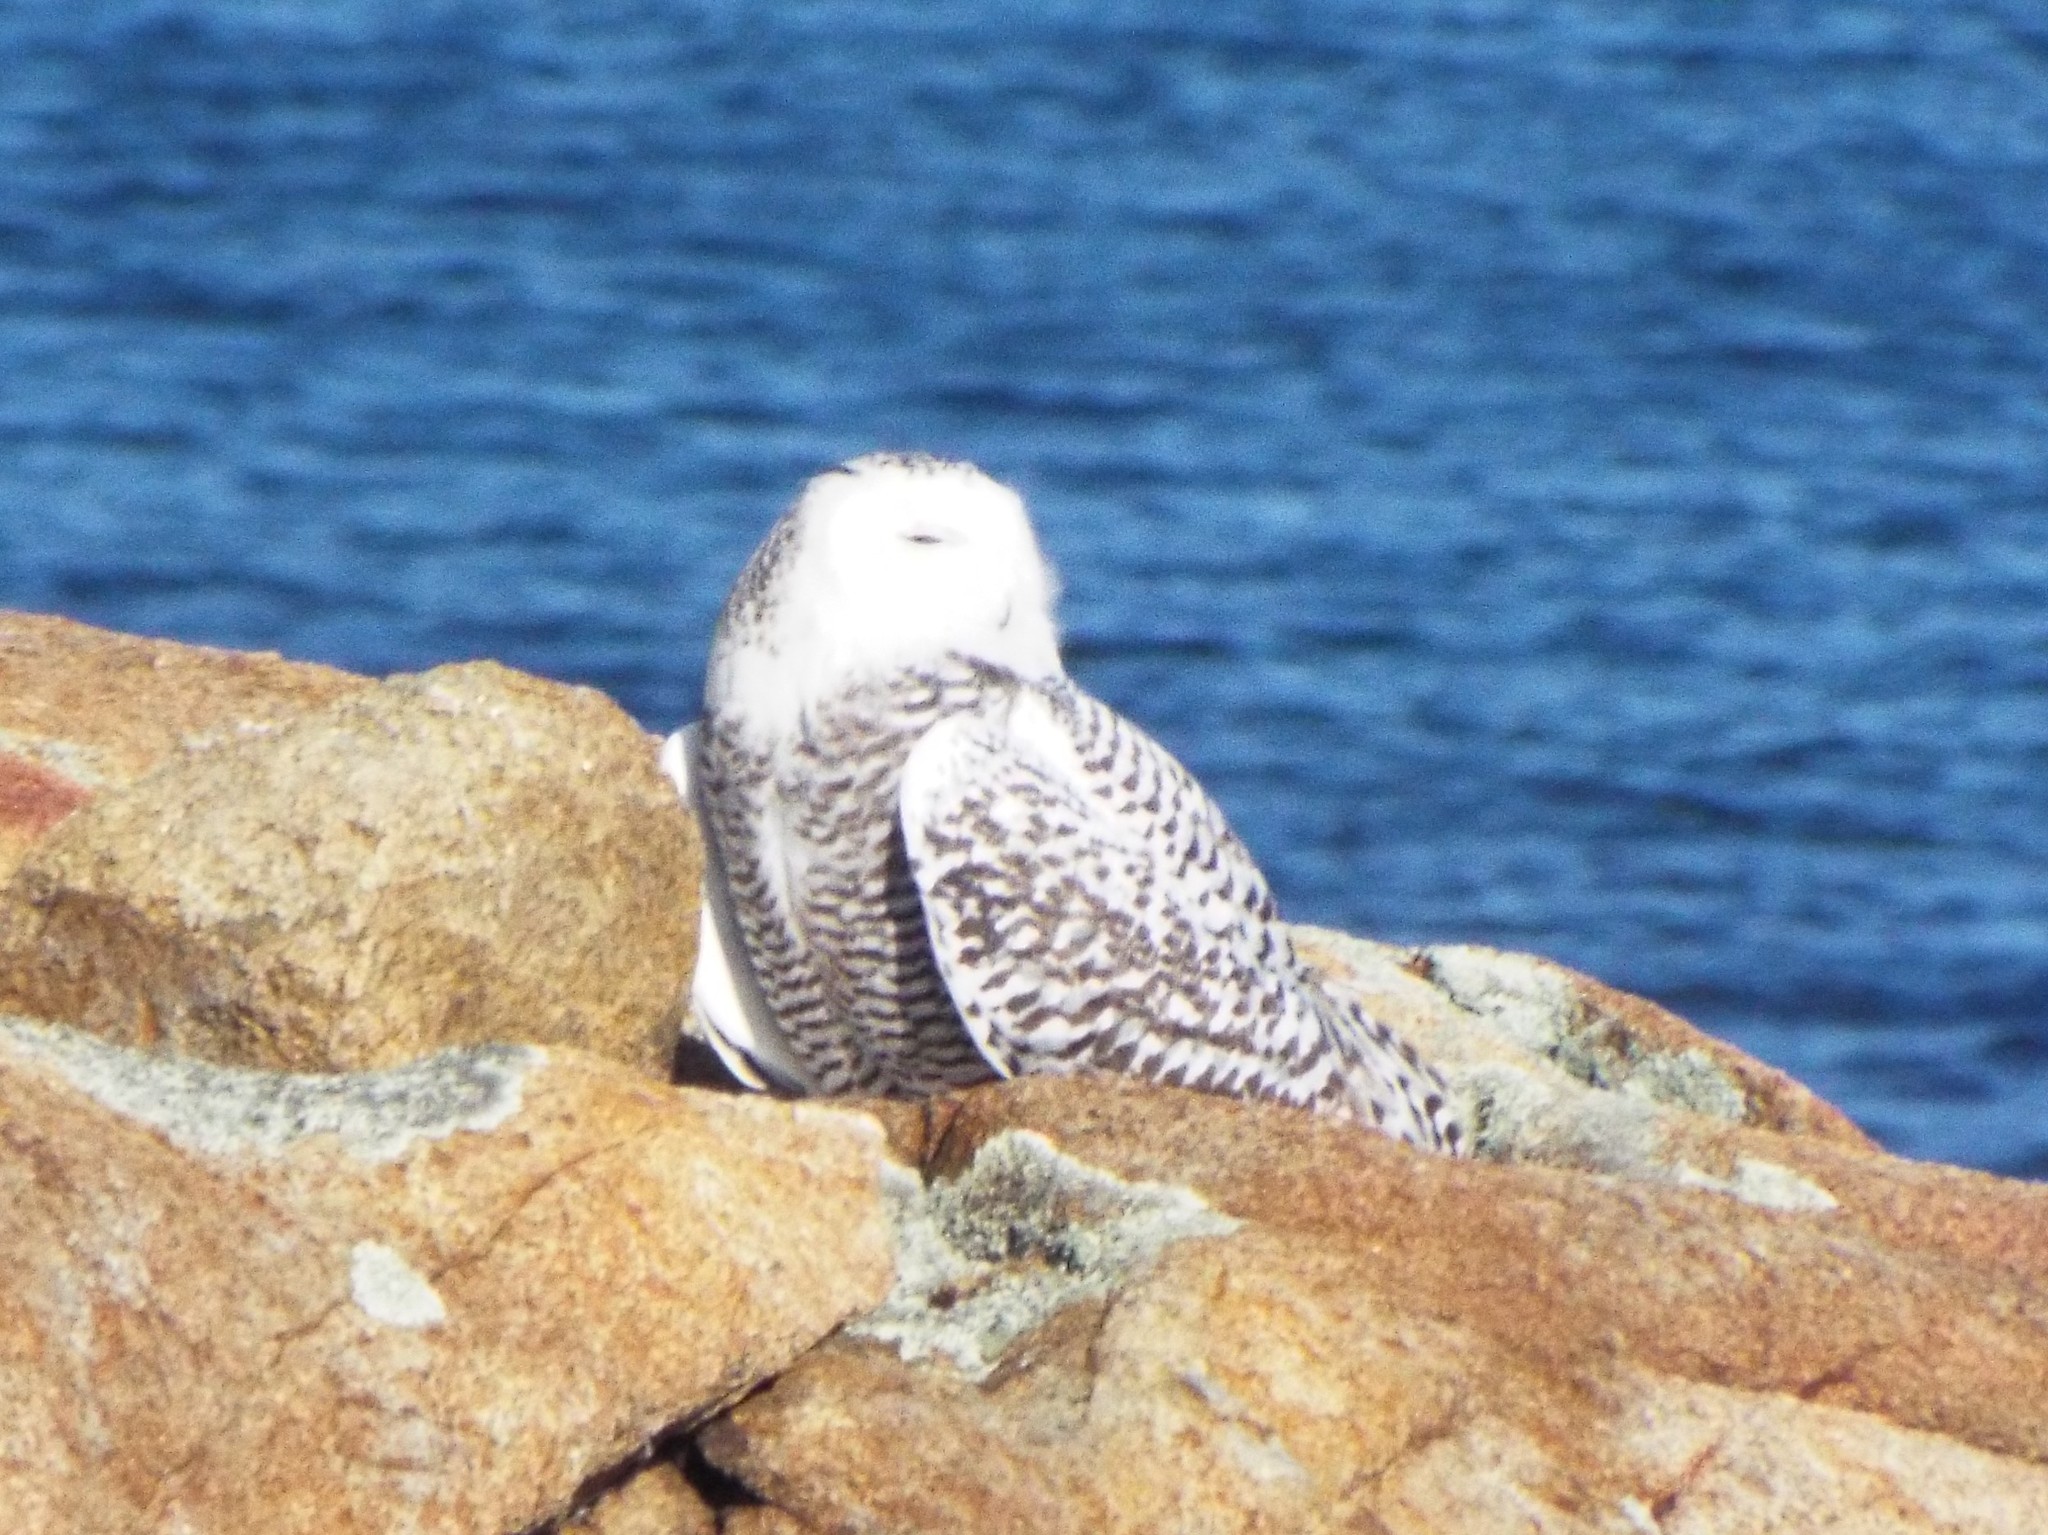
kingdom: Animalia
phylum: Chordata
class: Aves
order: Strigiformes
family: Strigidae
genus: Bubo
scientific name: Bubo scandiacus
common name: Snowy owl
